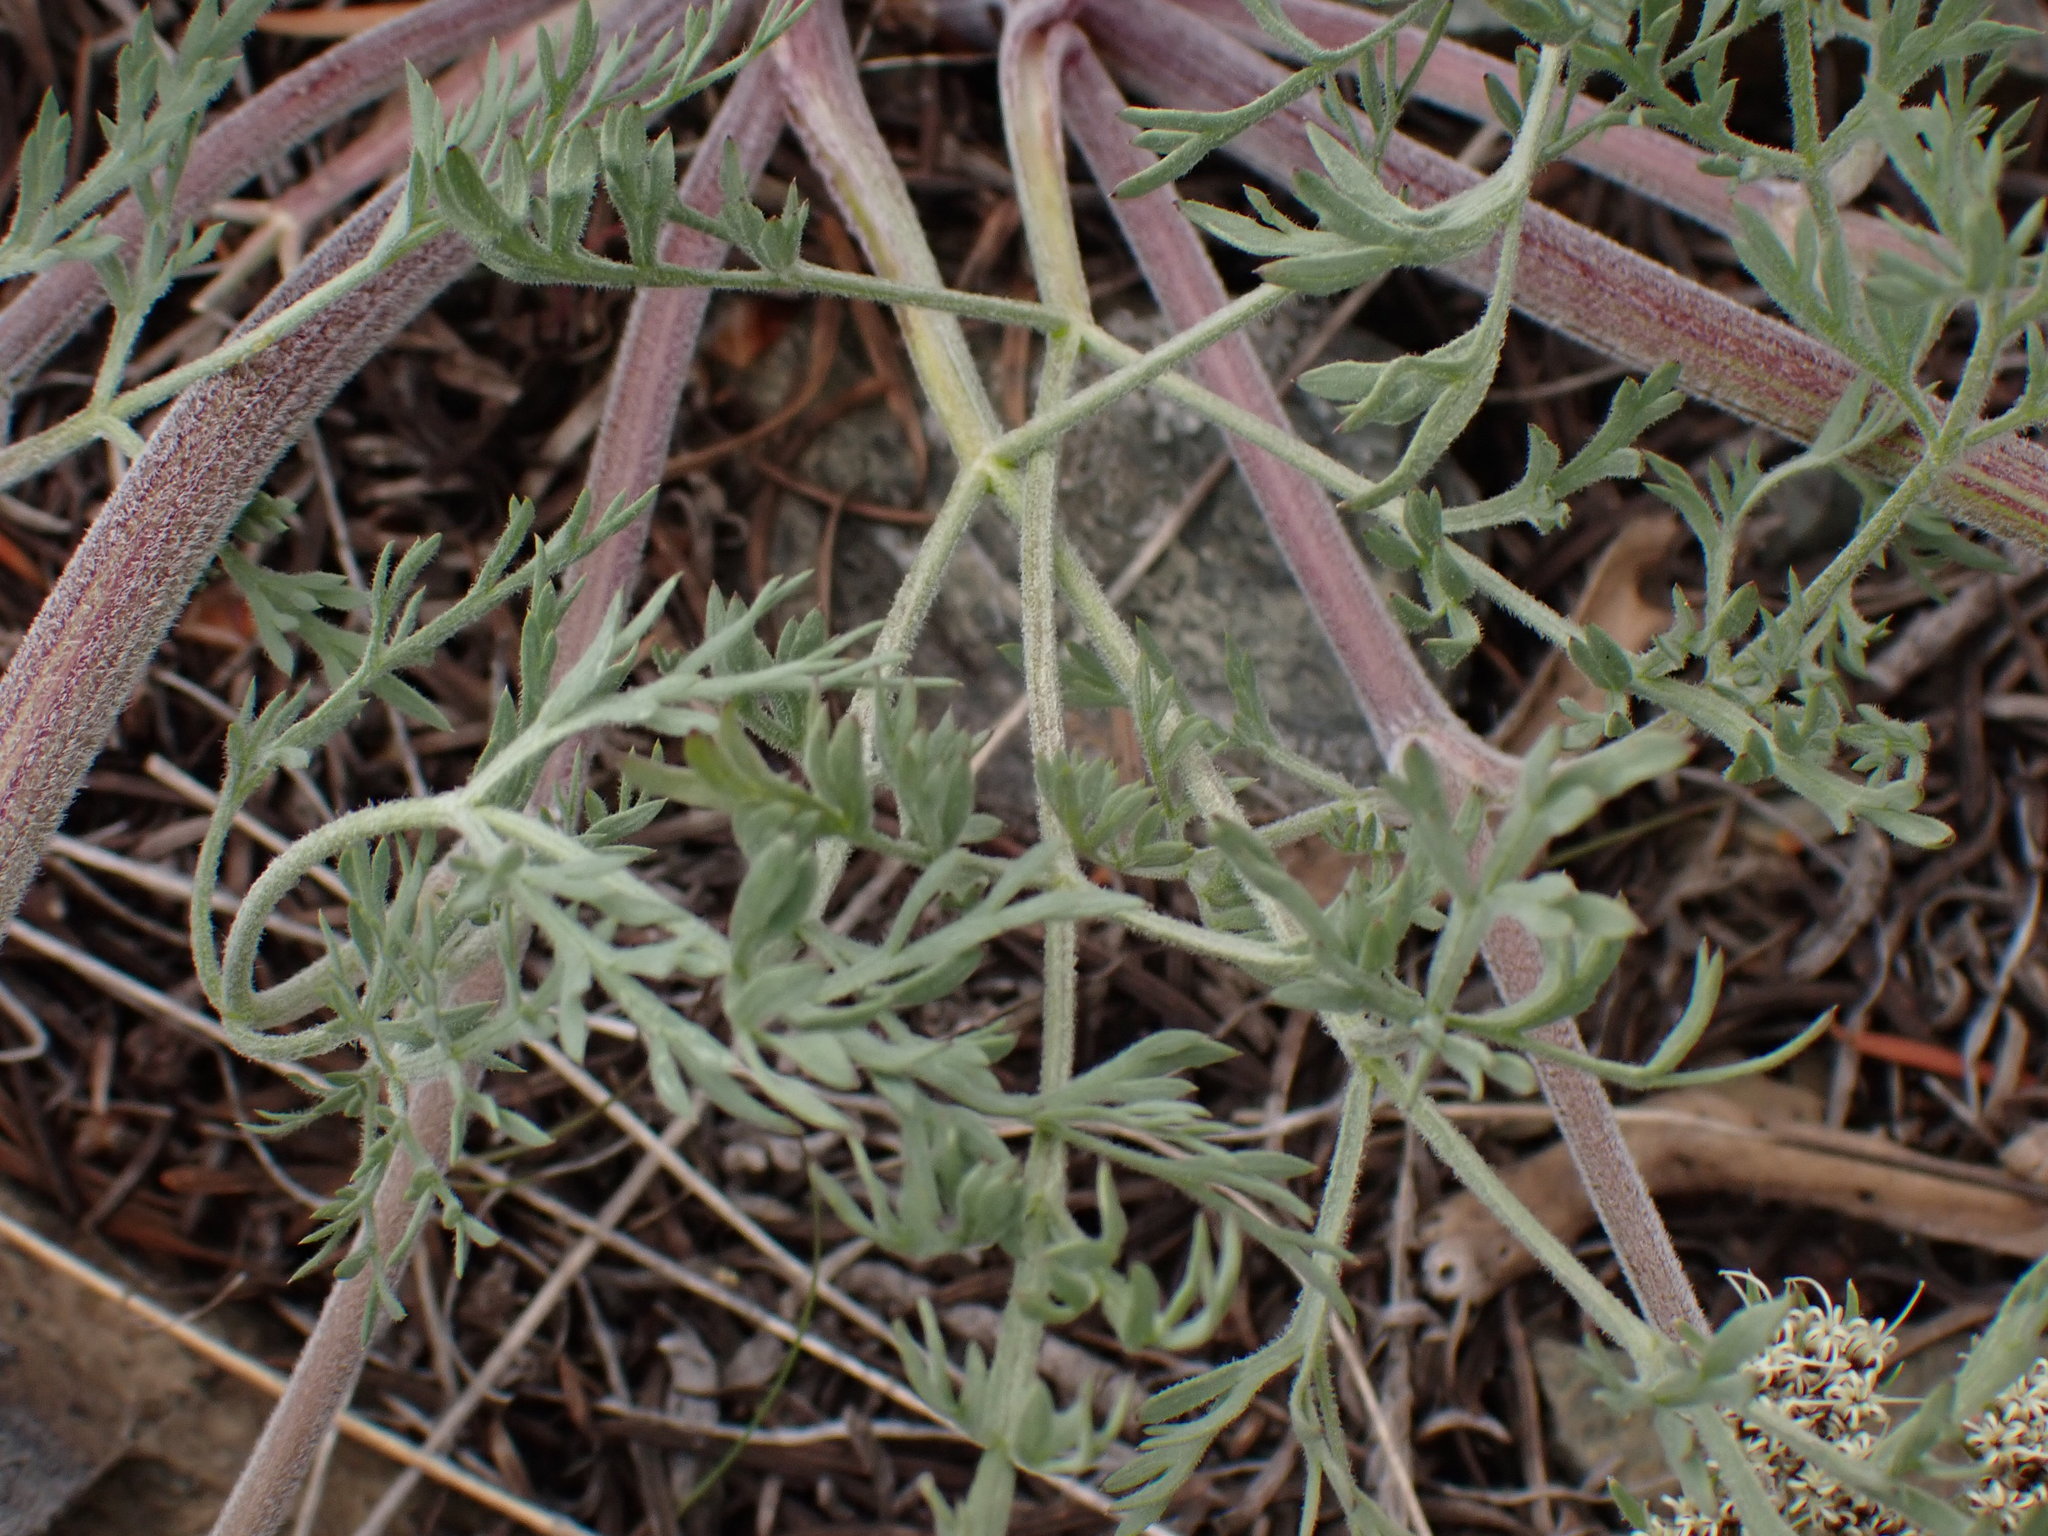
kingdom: Plantae
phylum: Tracheophyta
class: Magnoliopsida
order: Apiales
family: Apiaceae
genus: Lomatium
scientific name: Lomatium macrocarpum
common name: Big-seed biscuitroot
